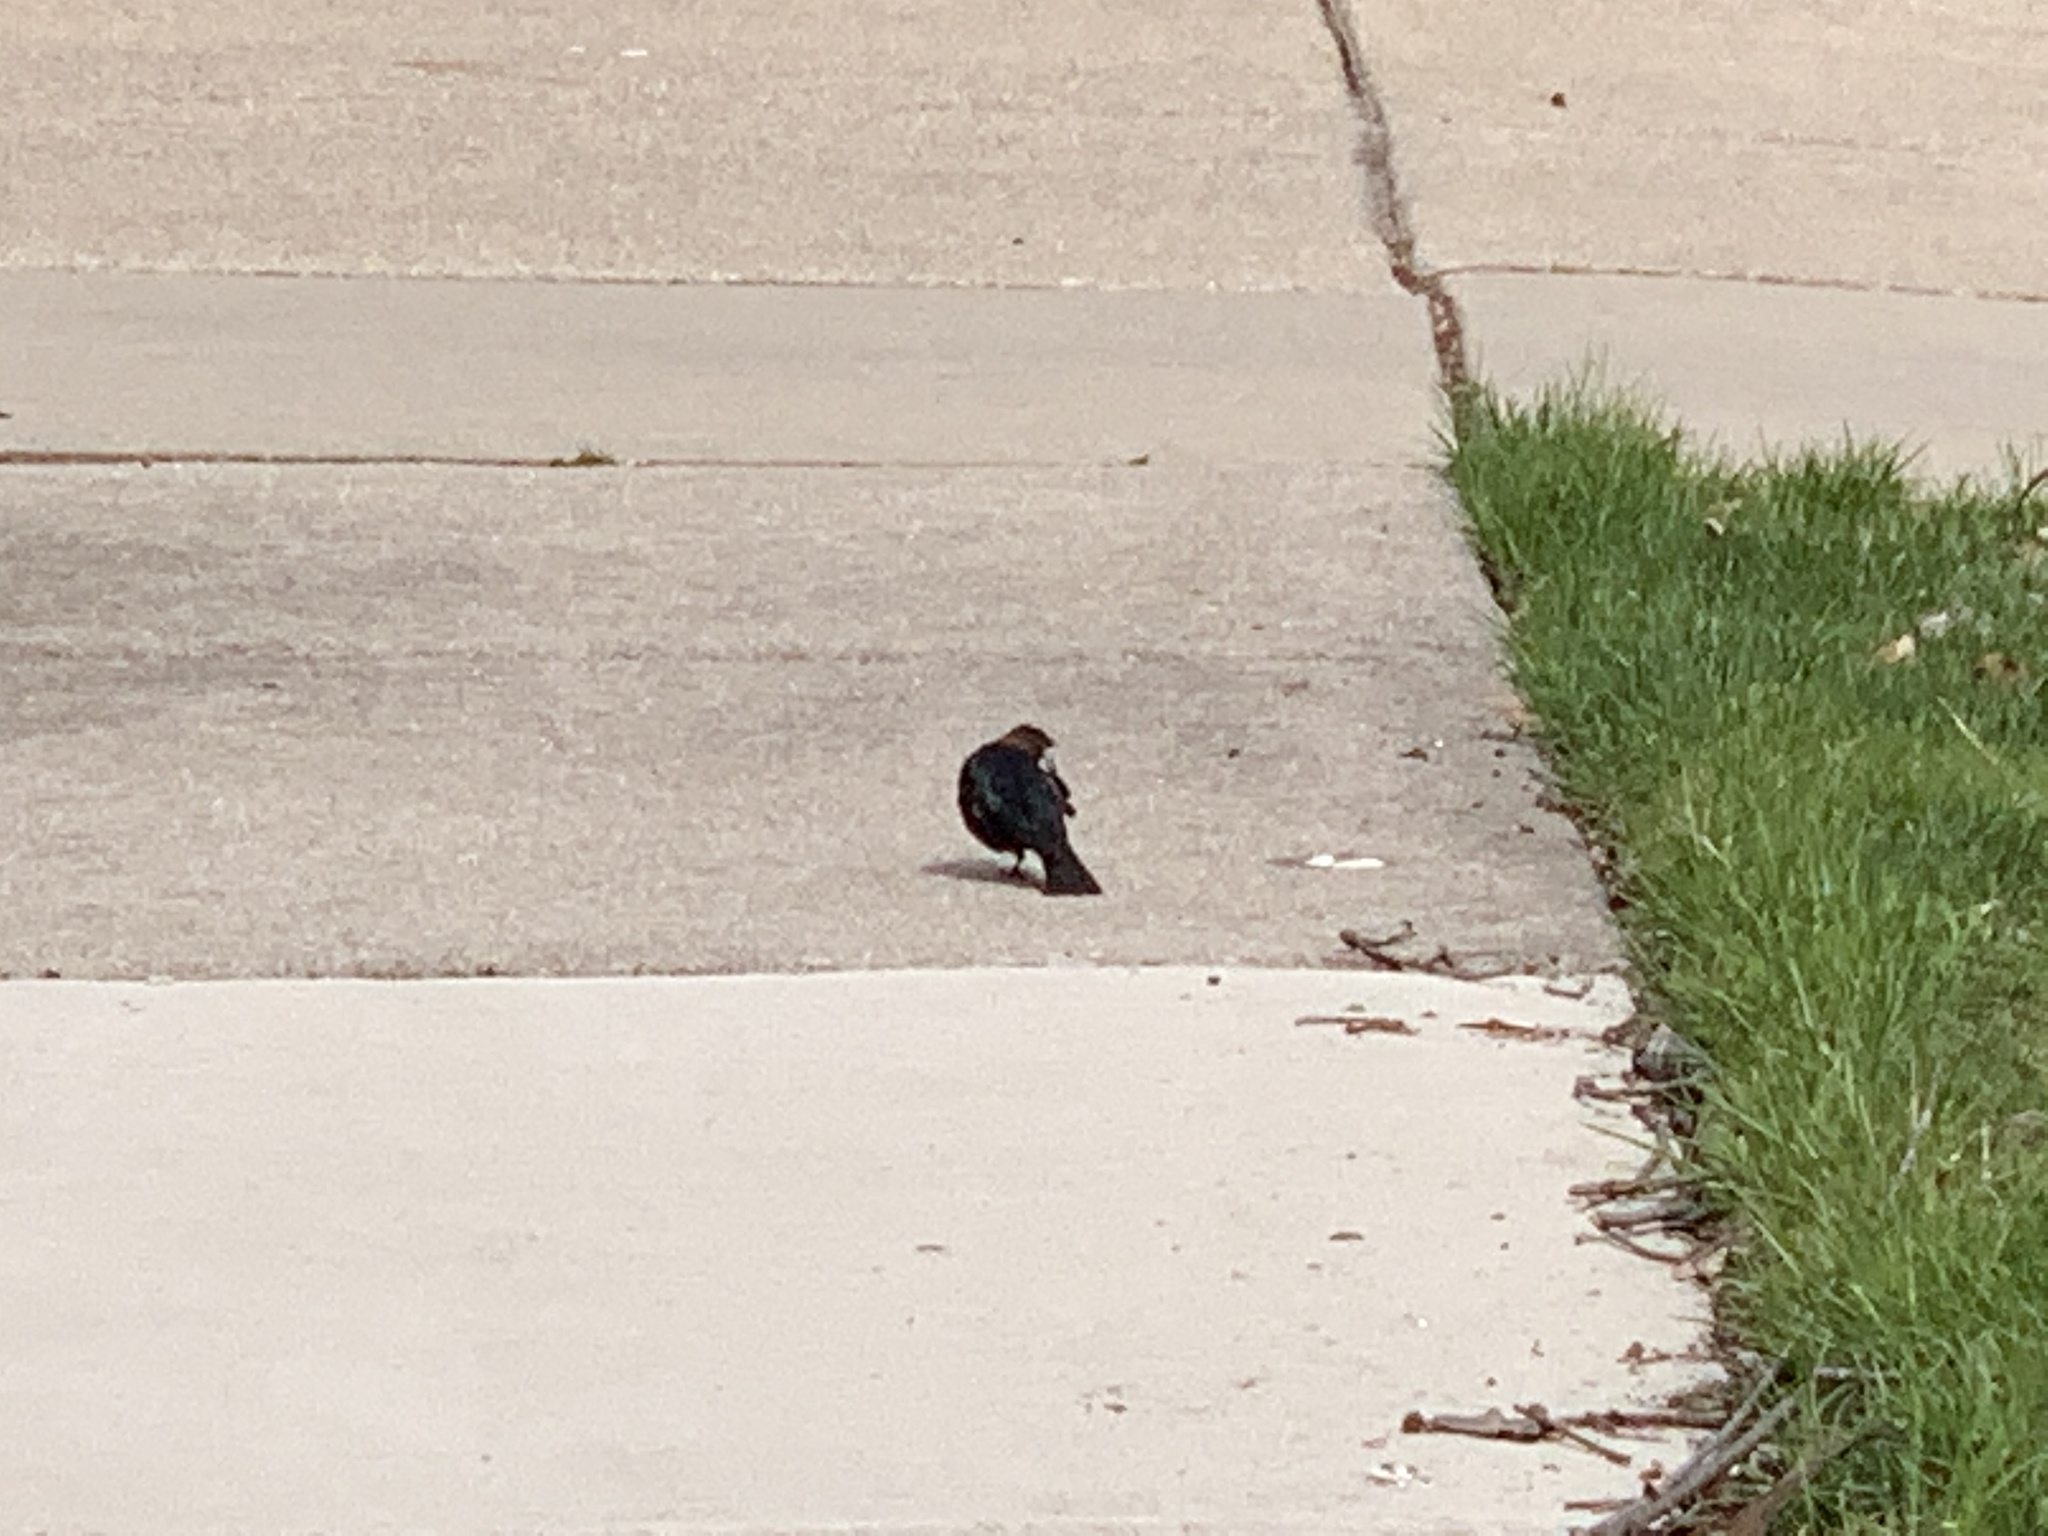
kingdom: Animalia
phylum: Chordata
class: Aves
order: Passeriformes
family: Icteridae
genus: Molothrus
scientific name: Molothrus ater
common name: Brown-headed cowbird
